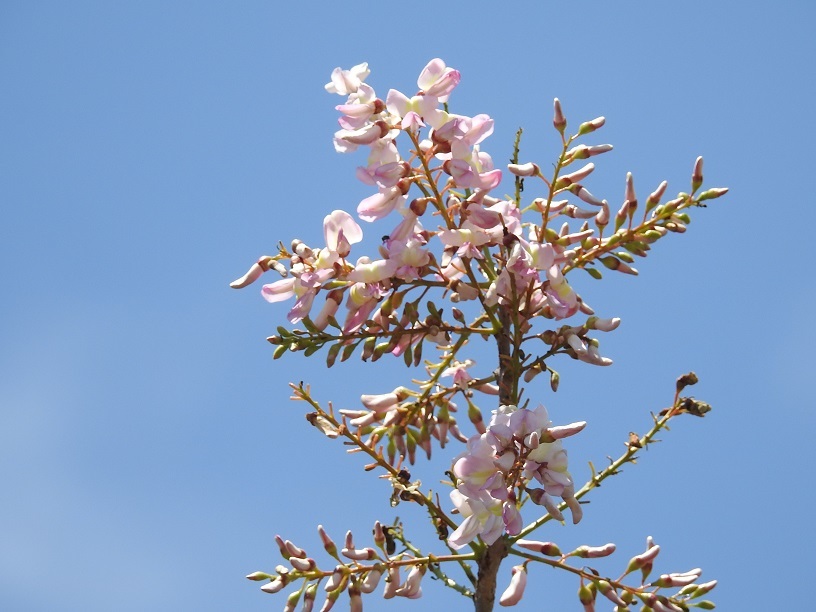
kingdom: Plantae
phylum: Tracheophyta
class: Magnoliopsida
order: Fabales
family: Fabaceae
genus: Gliricidia
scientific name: Gliricidia sepium
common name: Quickstick
